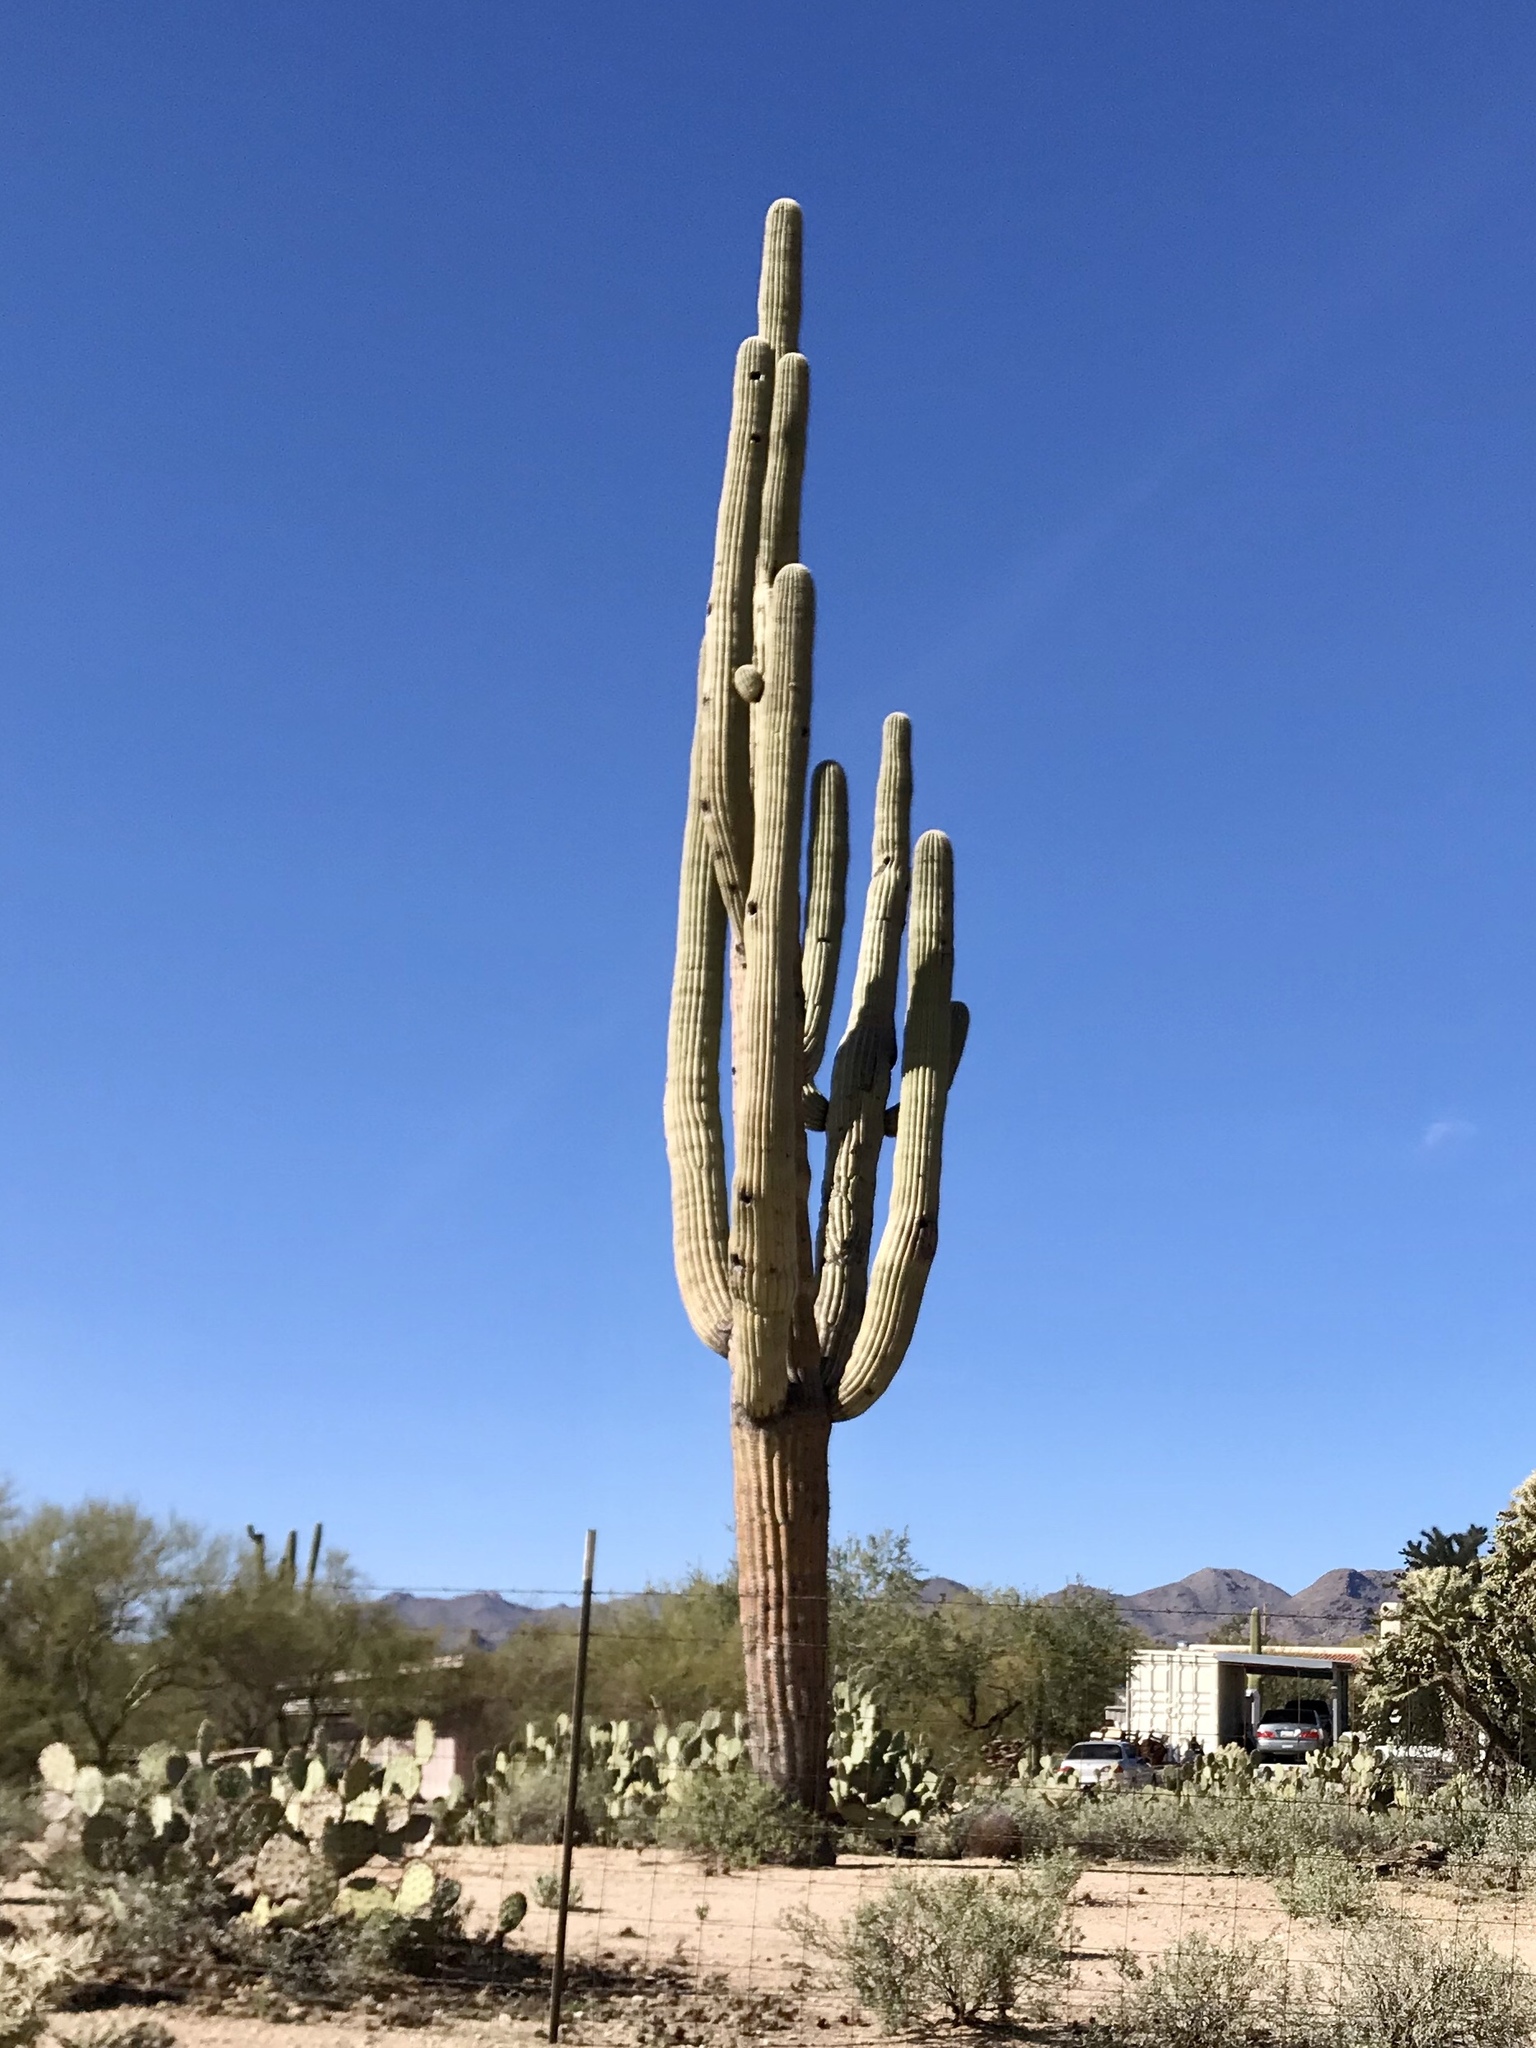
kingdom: Plantae
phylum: Tracheophyta
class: Magnoliopsida
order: Caryophyllales
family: Cactaceae
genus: Carnegiea
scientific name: Carnegiea gigantea
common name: Saguaro
